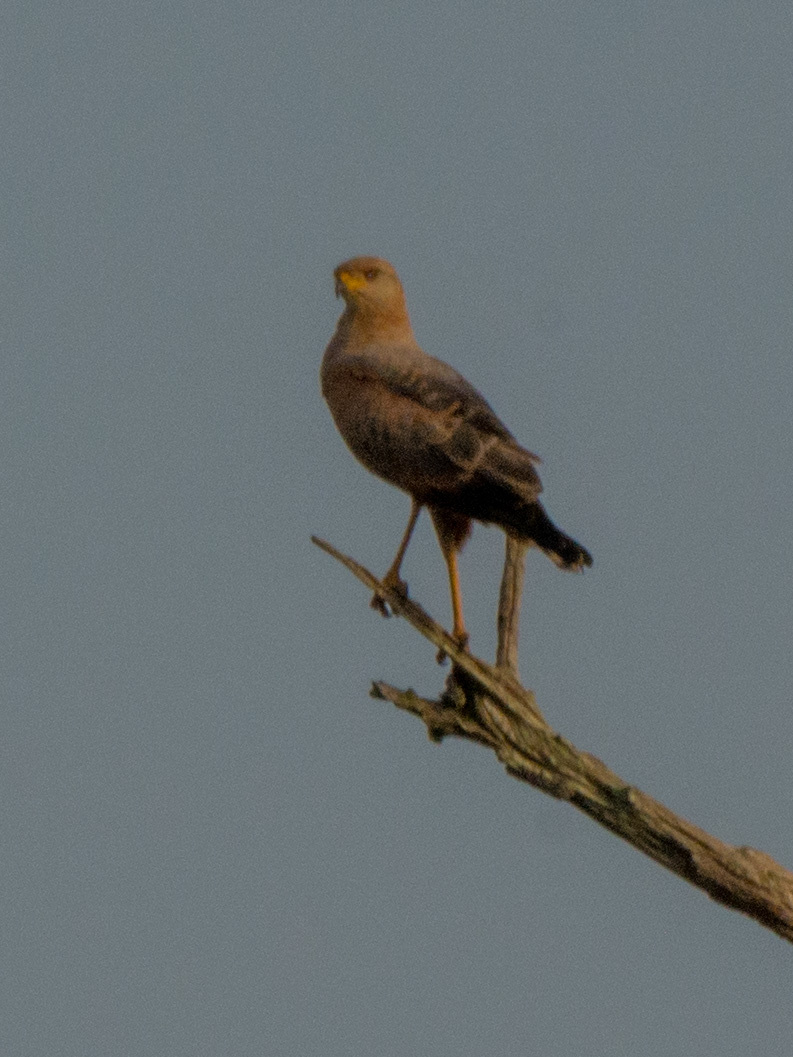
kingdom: Animalia
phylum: Chordata
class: Aves
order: Accipitriformes
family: Accipitridae
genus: Buteogallus
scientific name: Buteogallus meridionalis
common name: Savanna hawk
